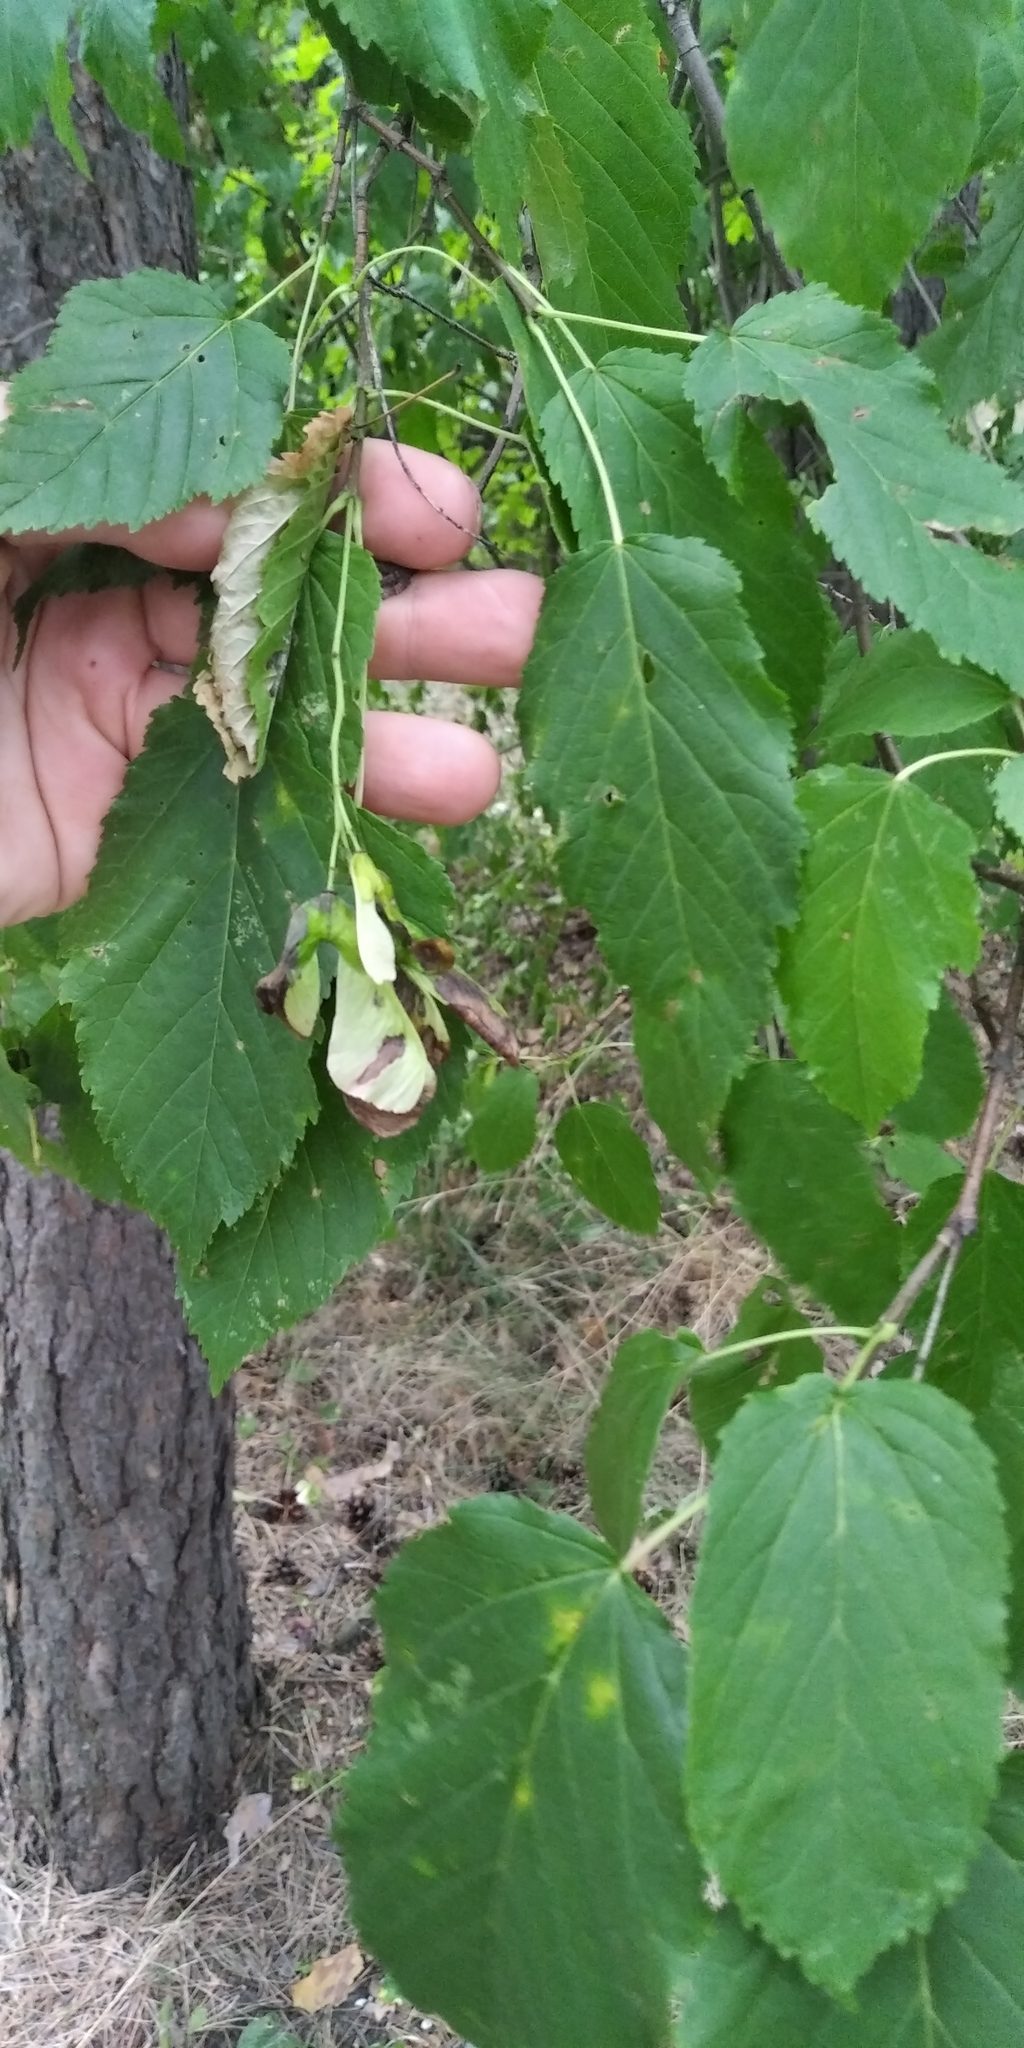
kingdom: Plantae
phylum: Tracheophyta
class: Magnoliopsida
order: Sapindales
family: Sapindaceae
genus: Acer
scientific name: Acer tataricum
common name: Tartar maple
